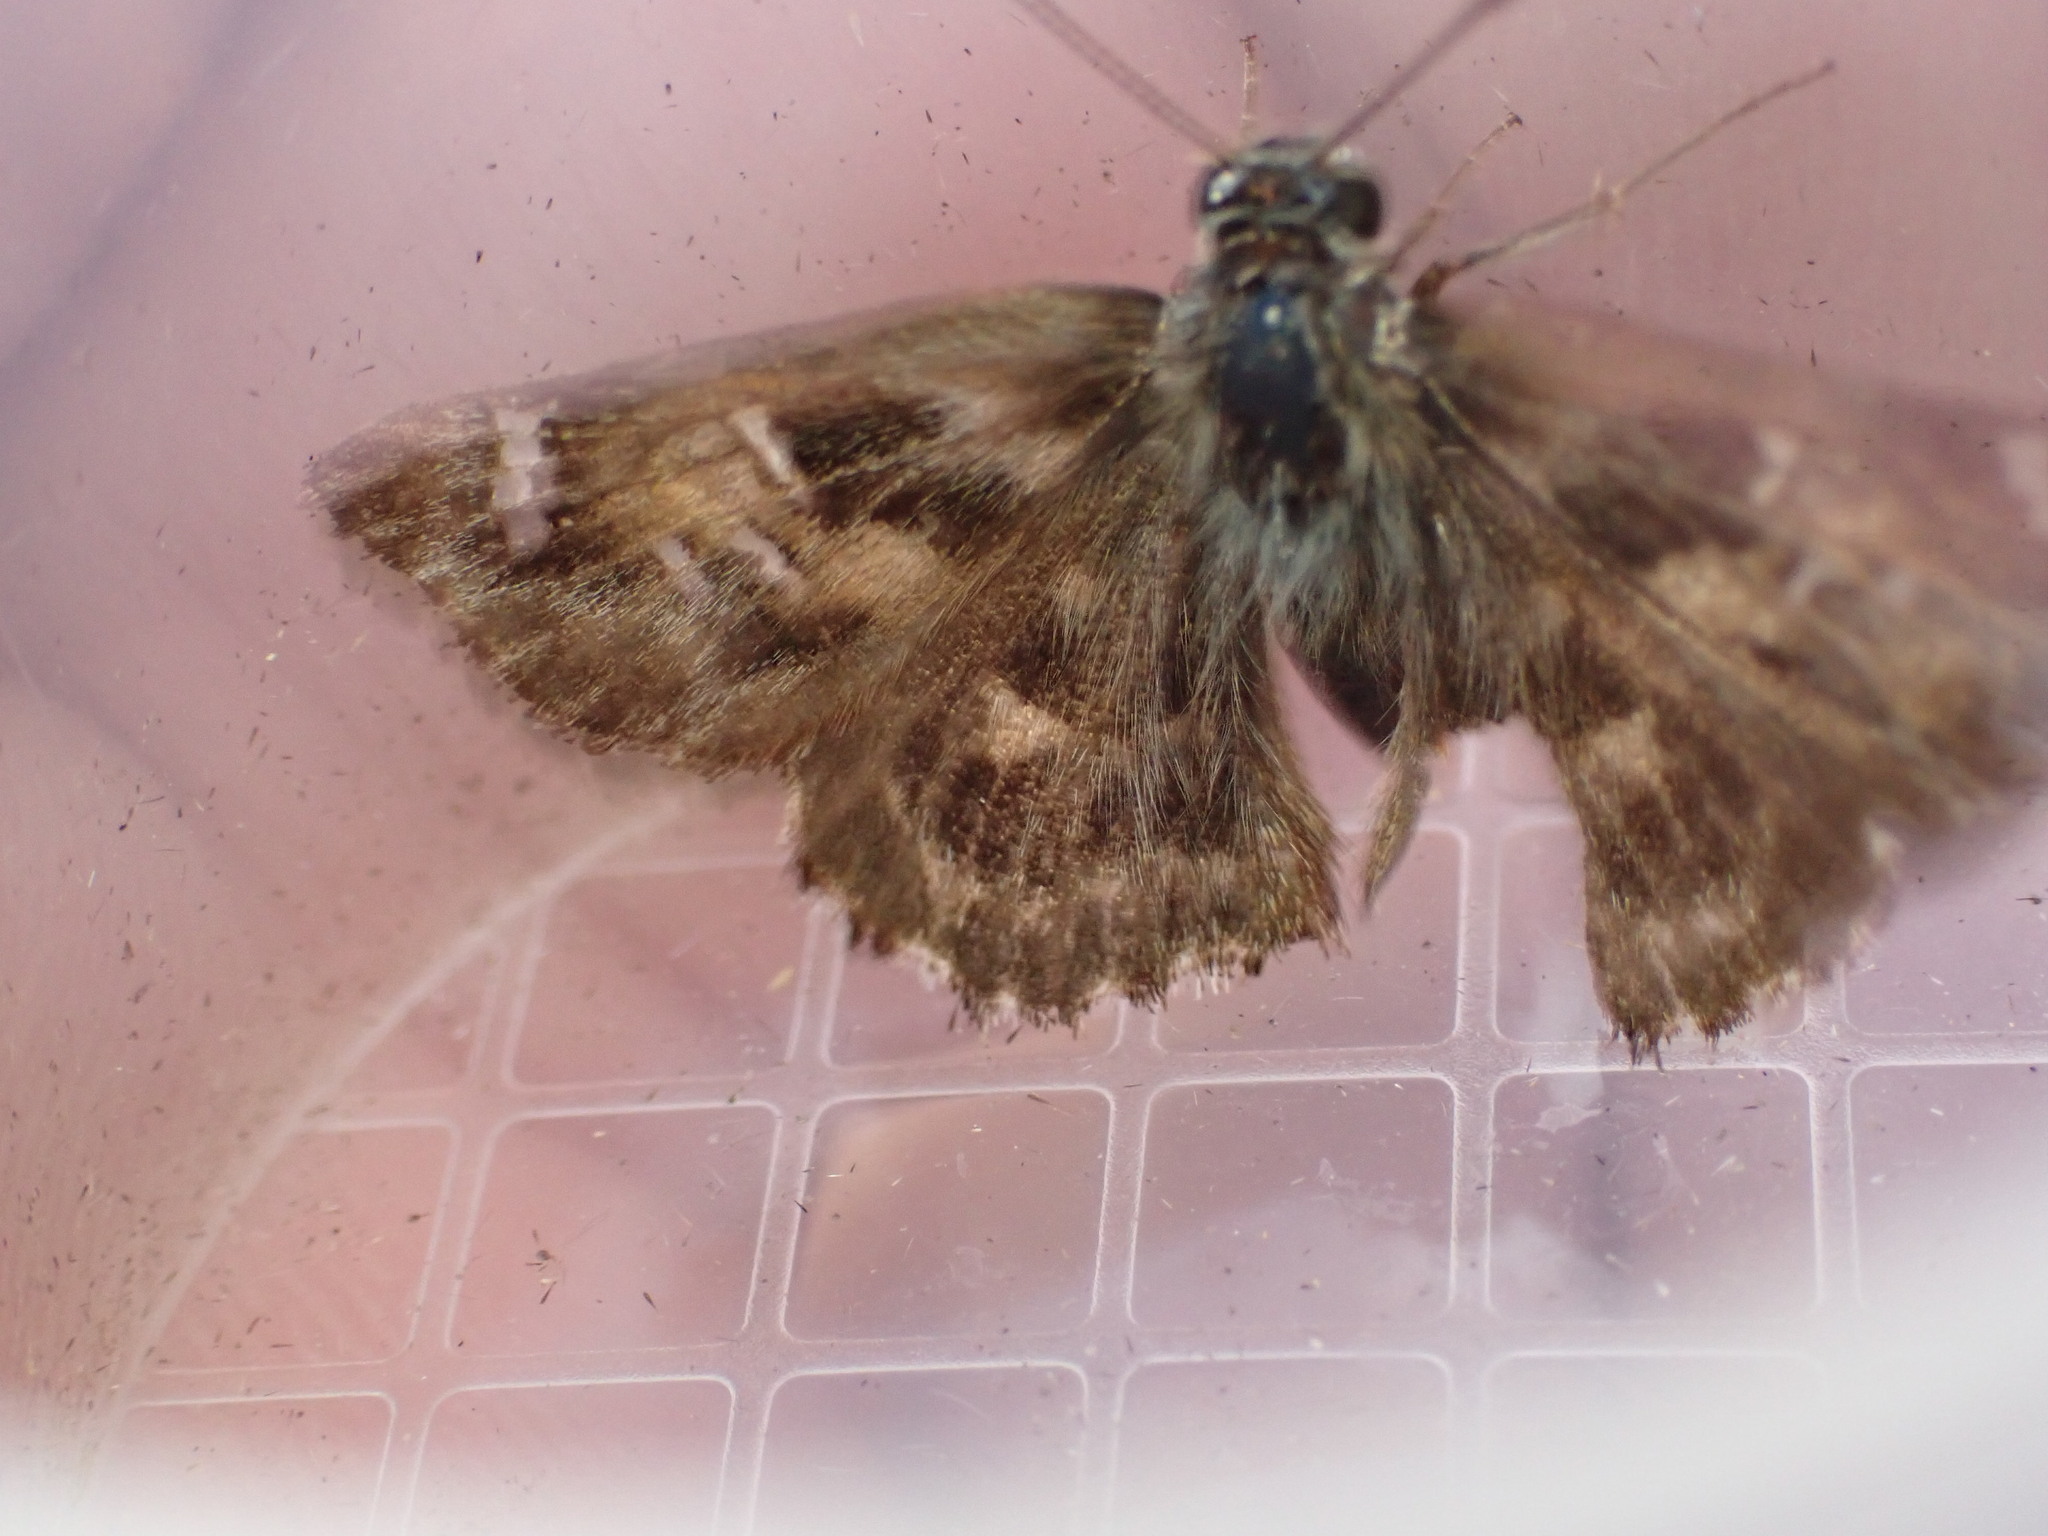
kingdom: Animalia
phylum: Arthropoda
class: Insecta
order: Lepidoptera
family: Hesperiidae
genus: Carcharodus
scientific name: Carcharodus alceae
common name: Mallow skipper
